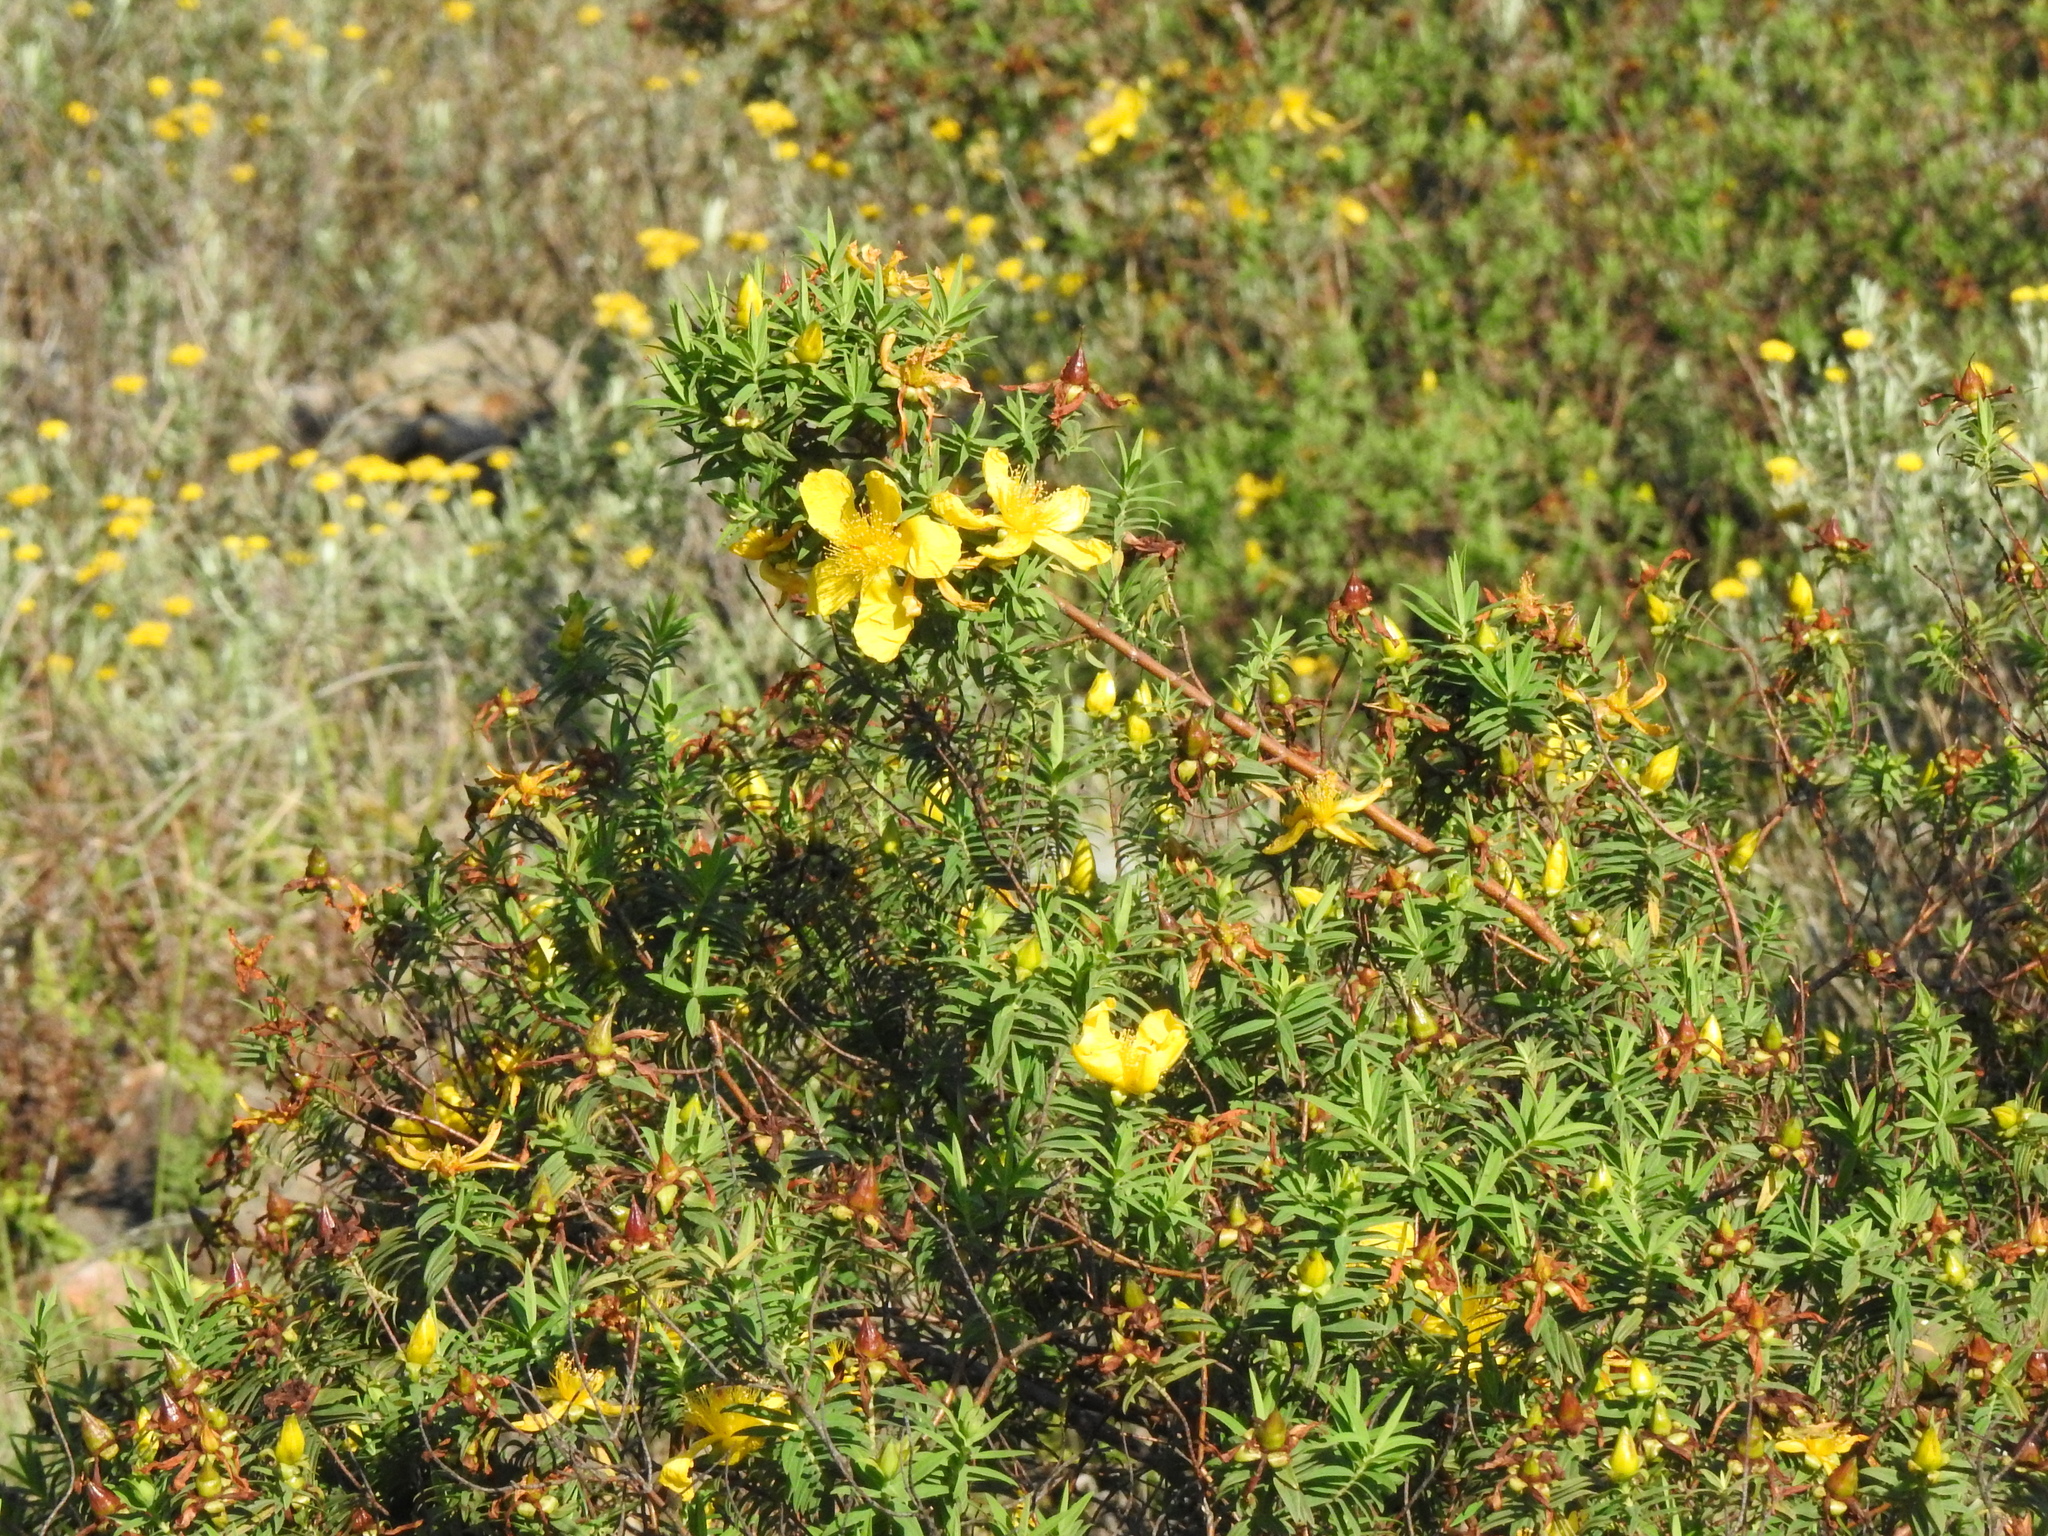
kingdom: Plantae
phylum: Tracheophyta
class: Magnoliopsida
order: Malpighiales
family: Hypericaceae
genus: Hypericum
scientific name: Hypericum revolutum
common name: Curry bush
